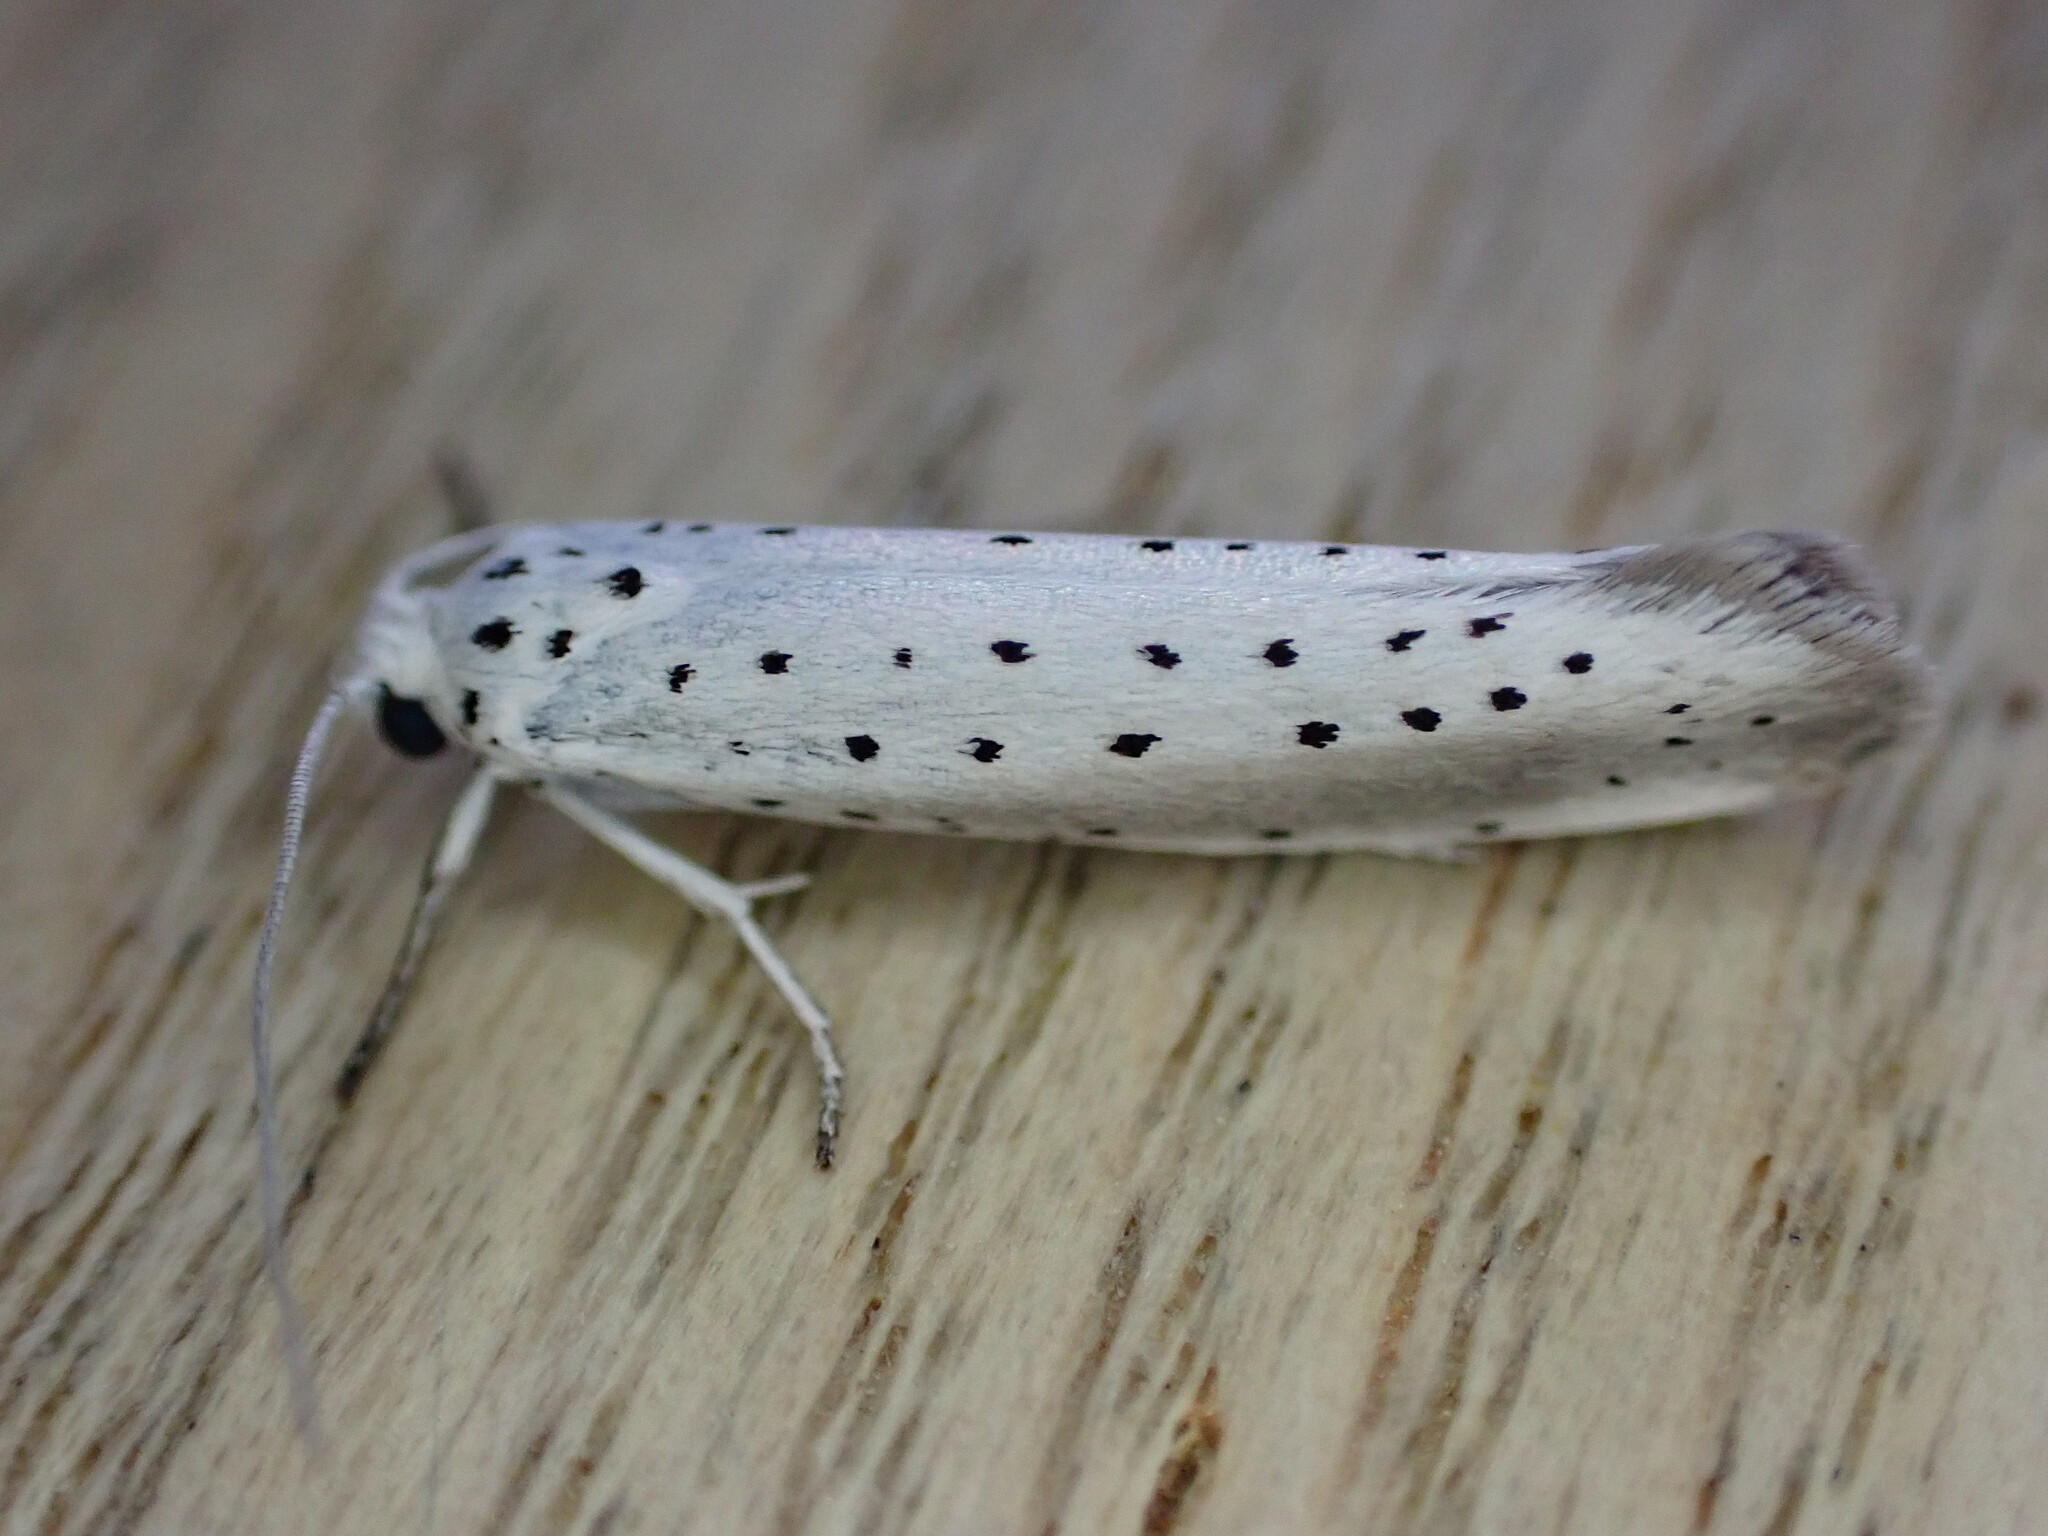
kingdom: Animalia
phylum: Arthropoda
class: Insecta
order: Lepidoptera
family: Yponomeutidae
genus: Yponomeuta
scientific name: Yponomeuta
